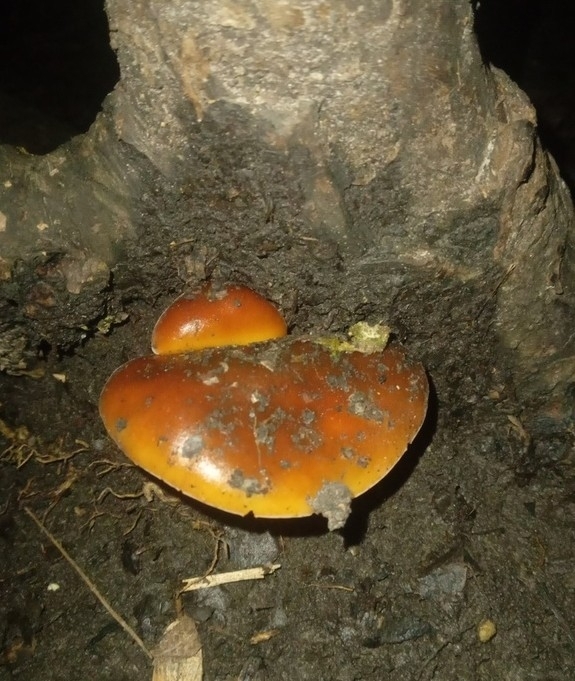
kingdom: Fungi
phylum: Basidiomycota
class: Agaricomycetes
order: Agaricales
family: Physalacriaceae
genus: Flammulina
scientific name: Flammulina
